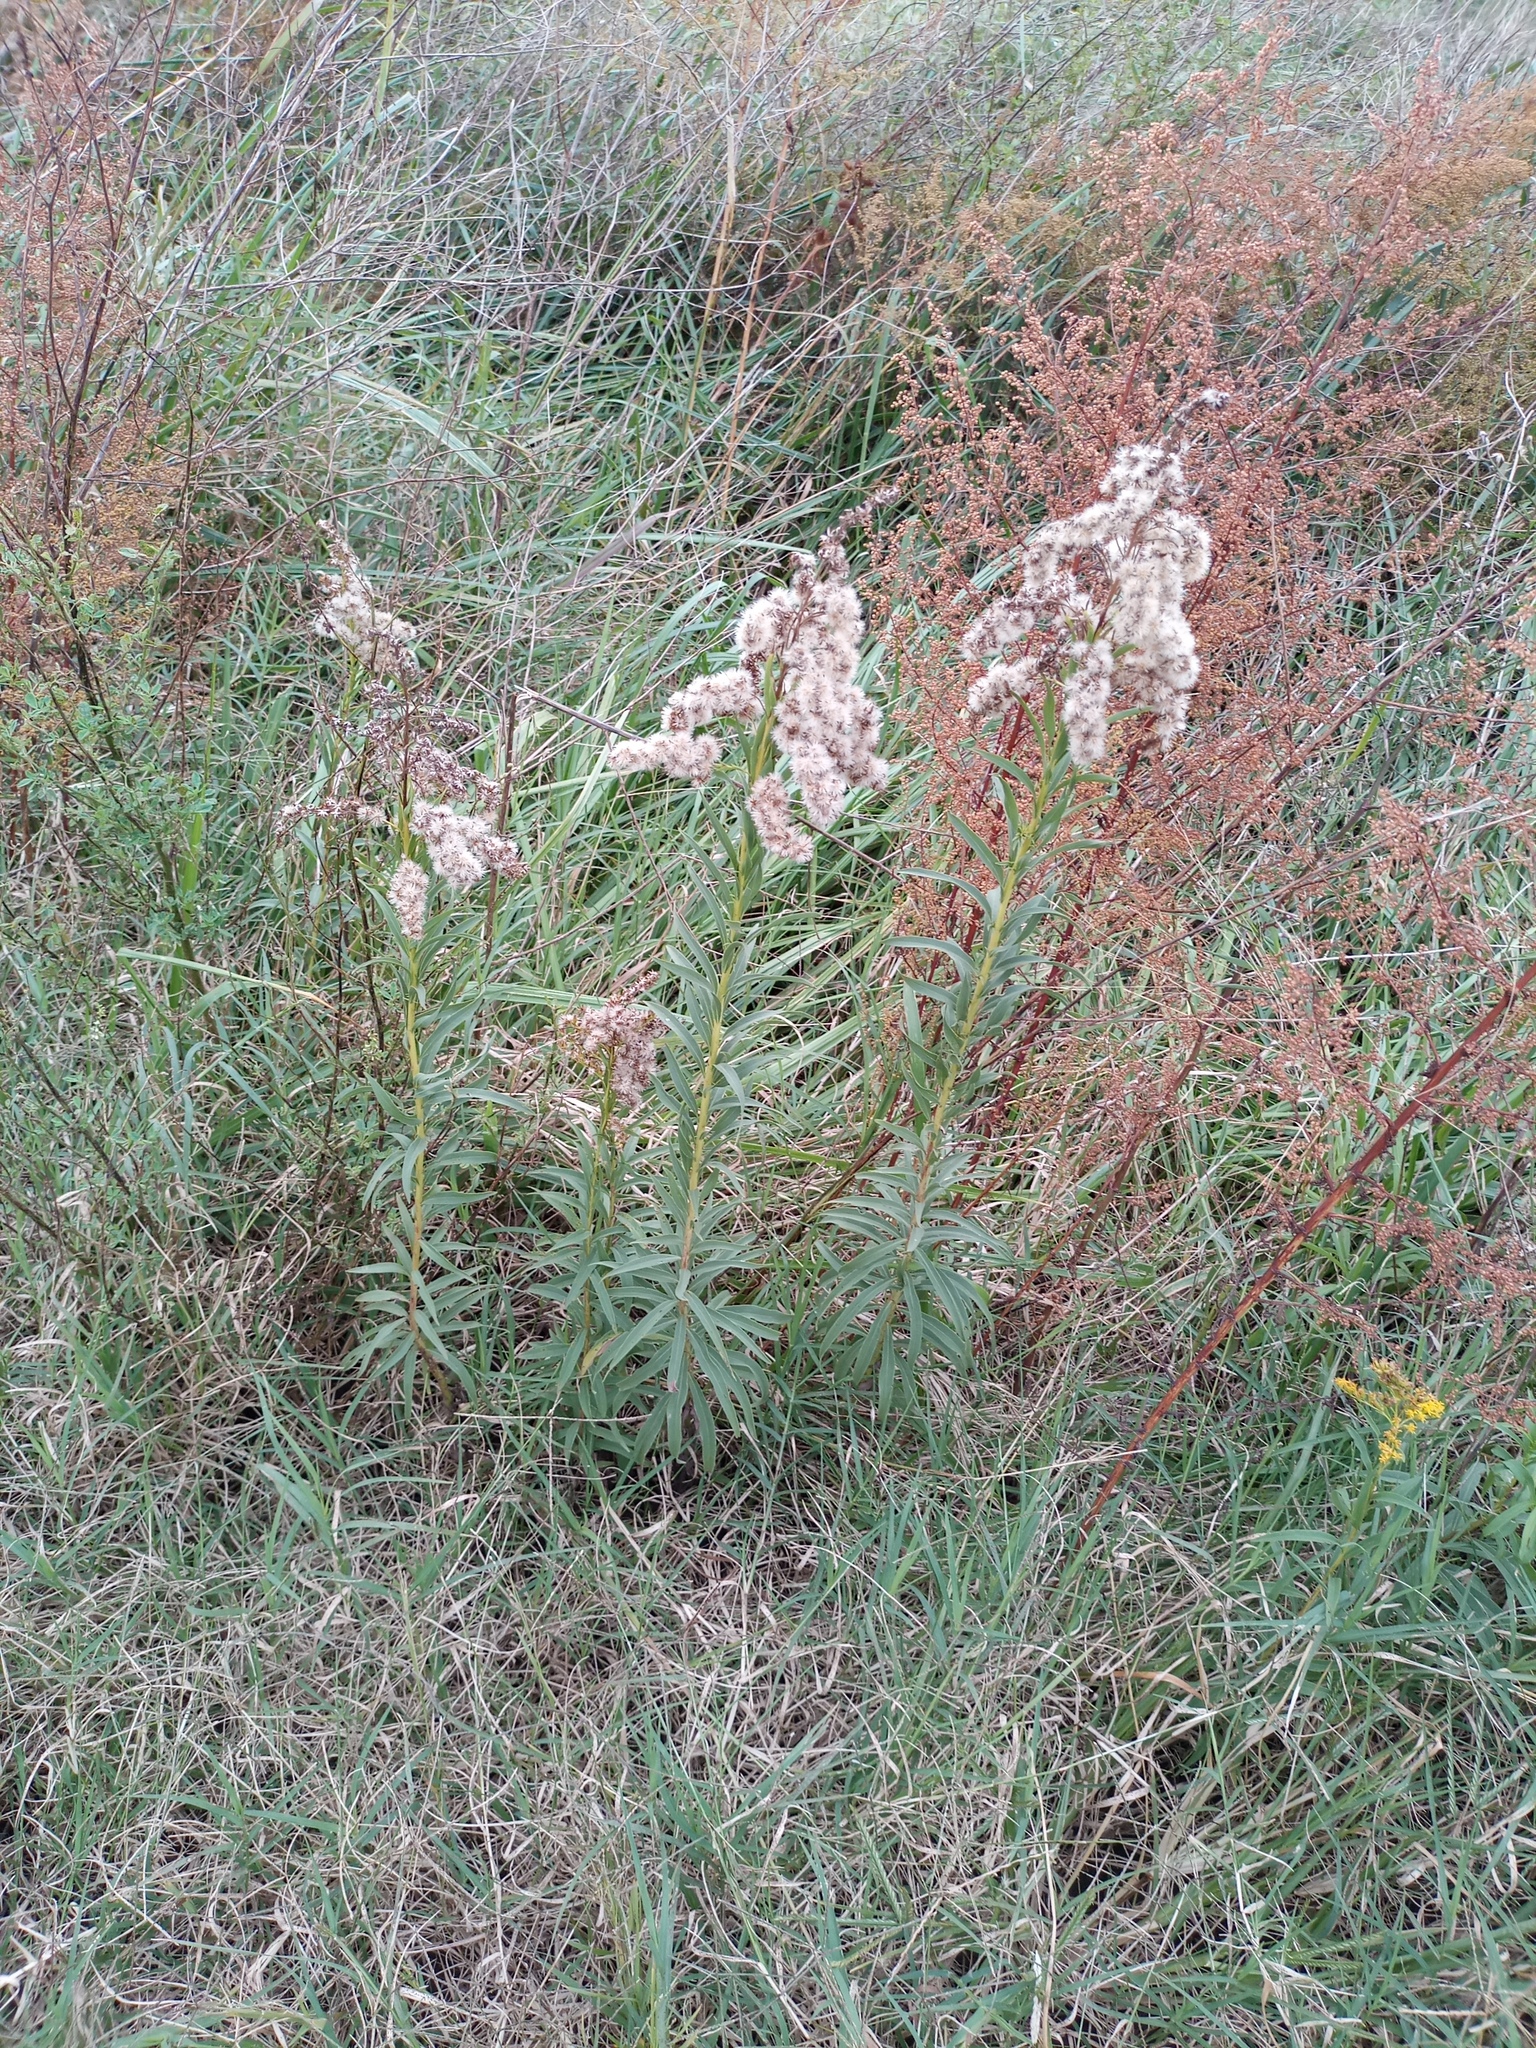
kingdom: Plantae
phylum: Tracheophyta
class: Magnoliopsida
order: Asterales
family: Asteraceae
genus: Solidago
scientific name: Solidago chilensis
